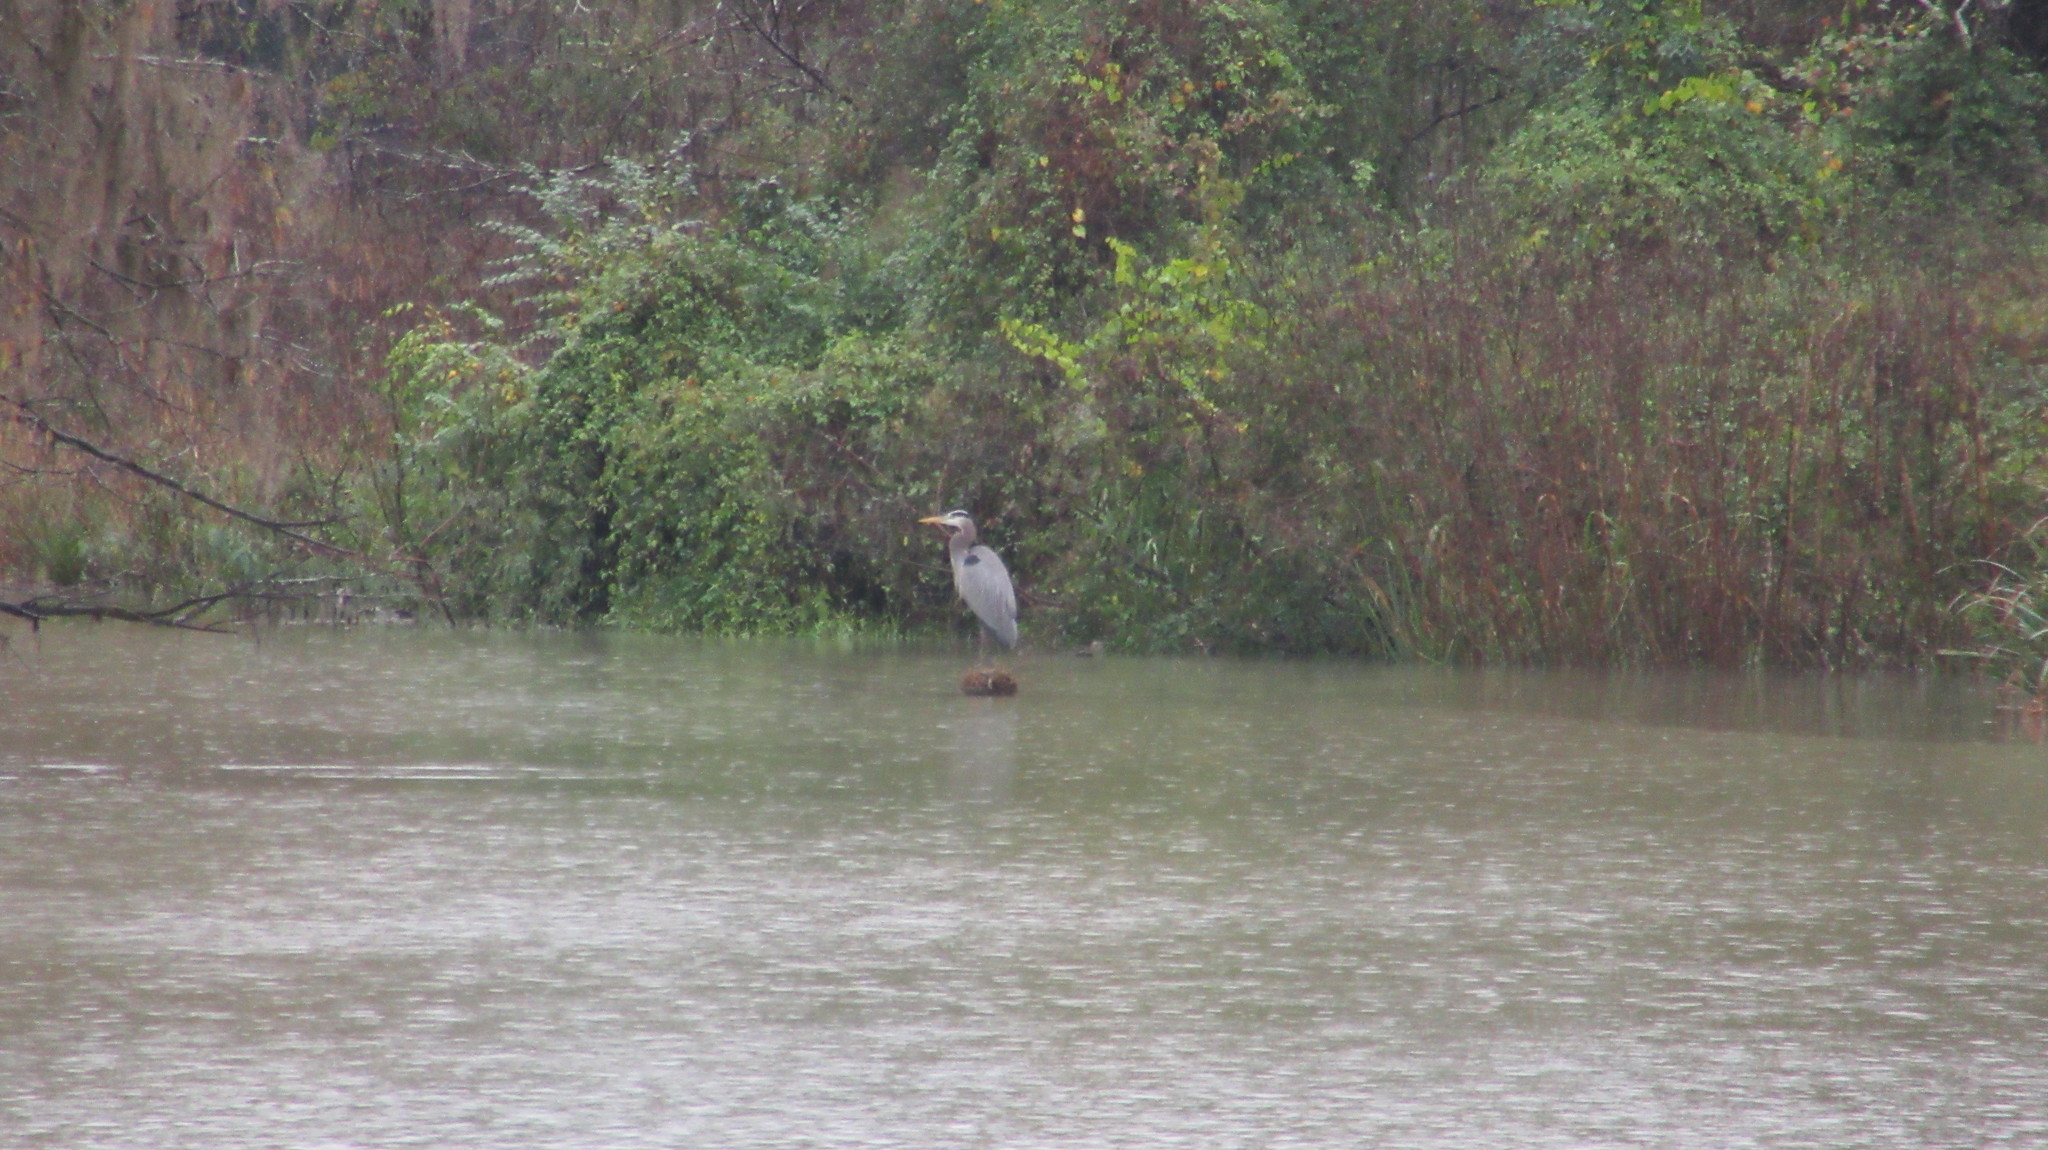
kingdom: Animalia
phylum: Chordata
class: Aves
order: Pelecaniformes
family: Ardeidae
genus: Ardea
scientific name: Ardea herodias
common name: Great blue heron
